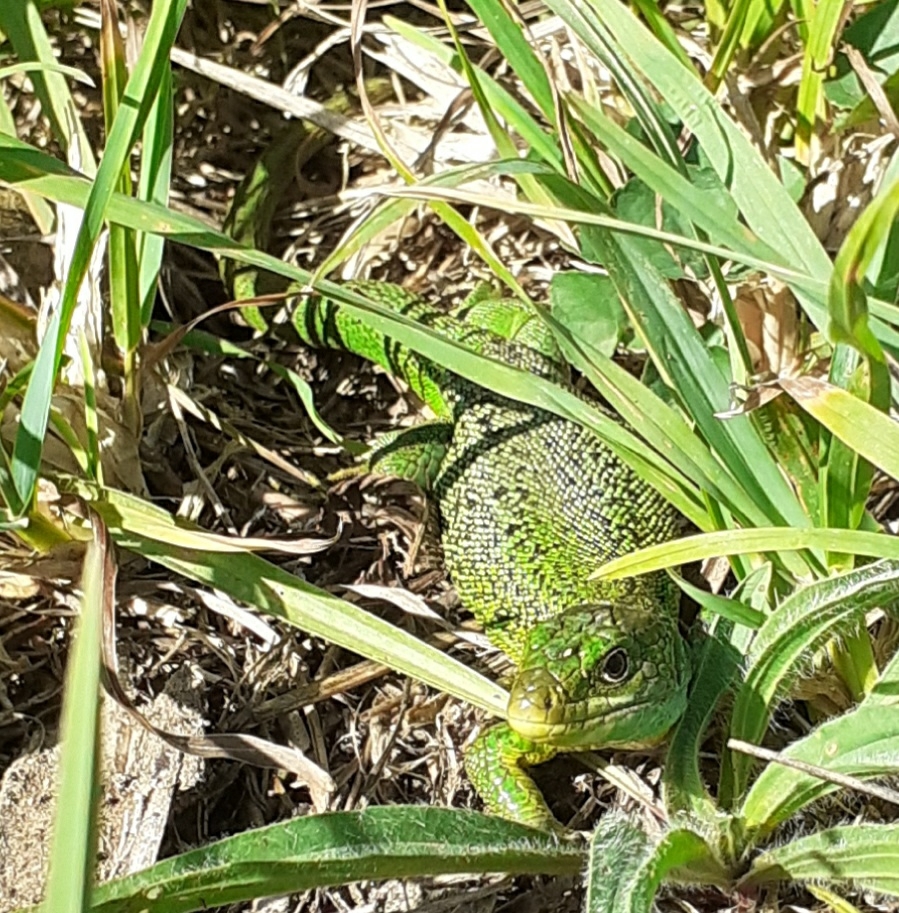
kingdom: Animalia
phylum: Chordata
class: Squamata
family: Lacertidae
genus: Lacerta
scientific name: Lacerta bilineata
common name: Western green lizard
